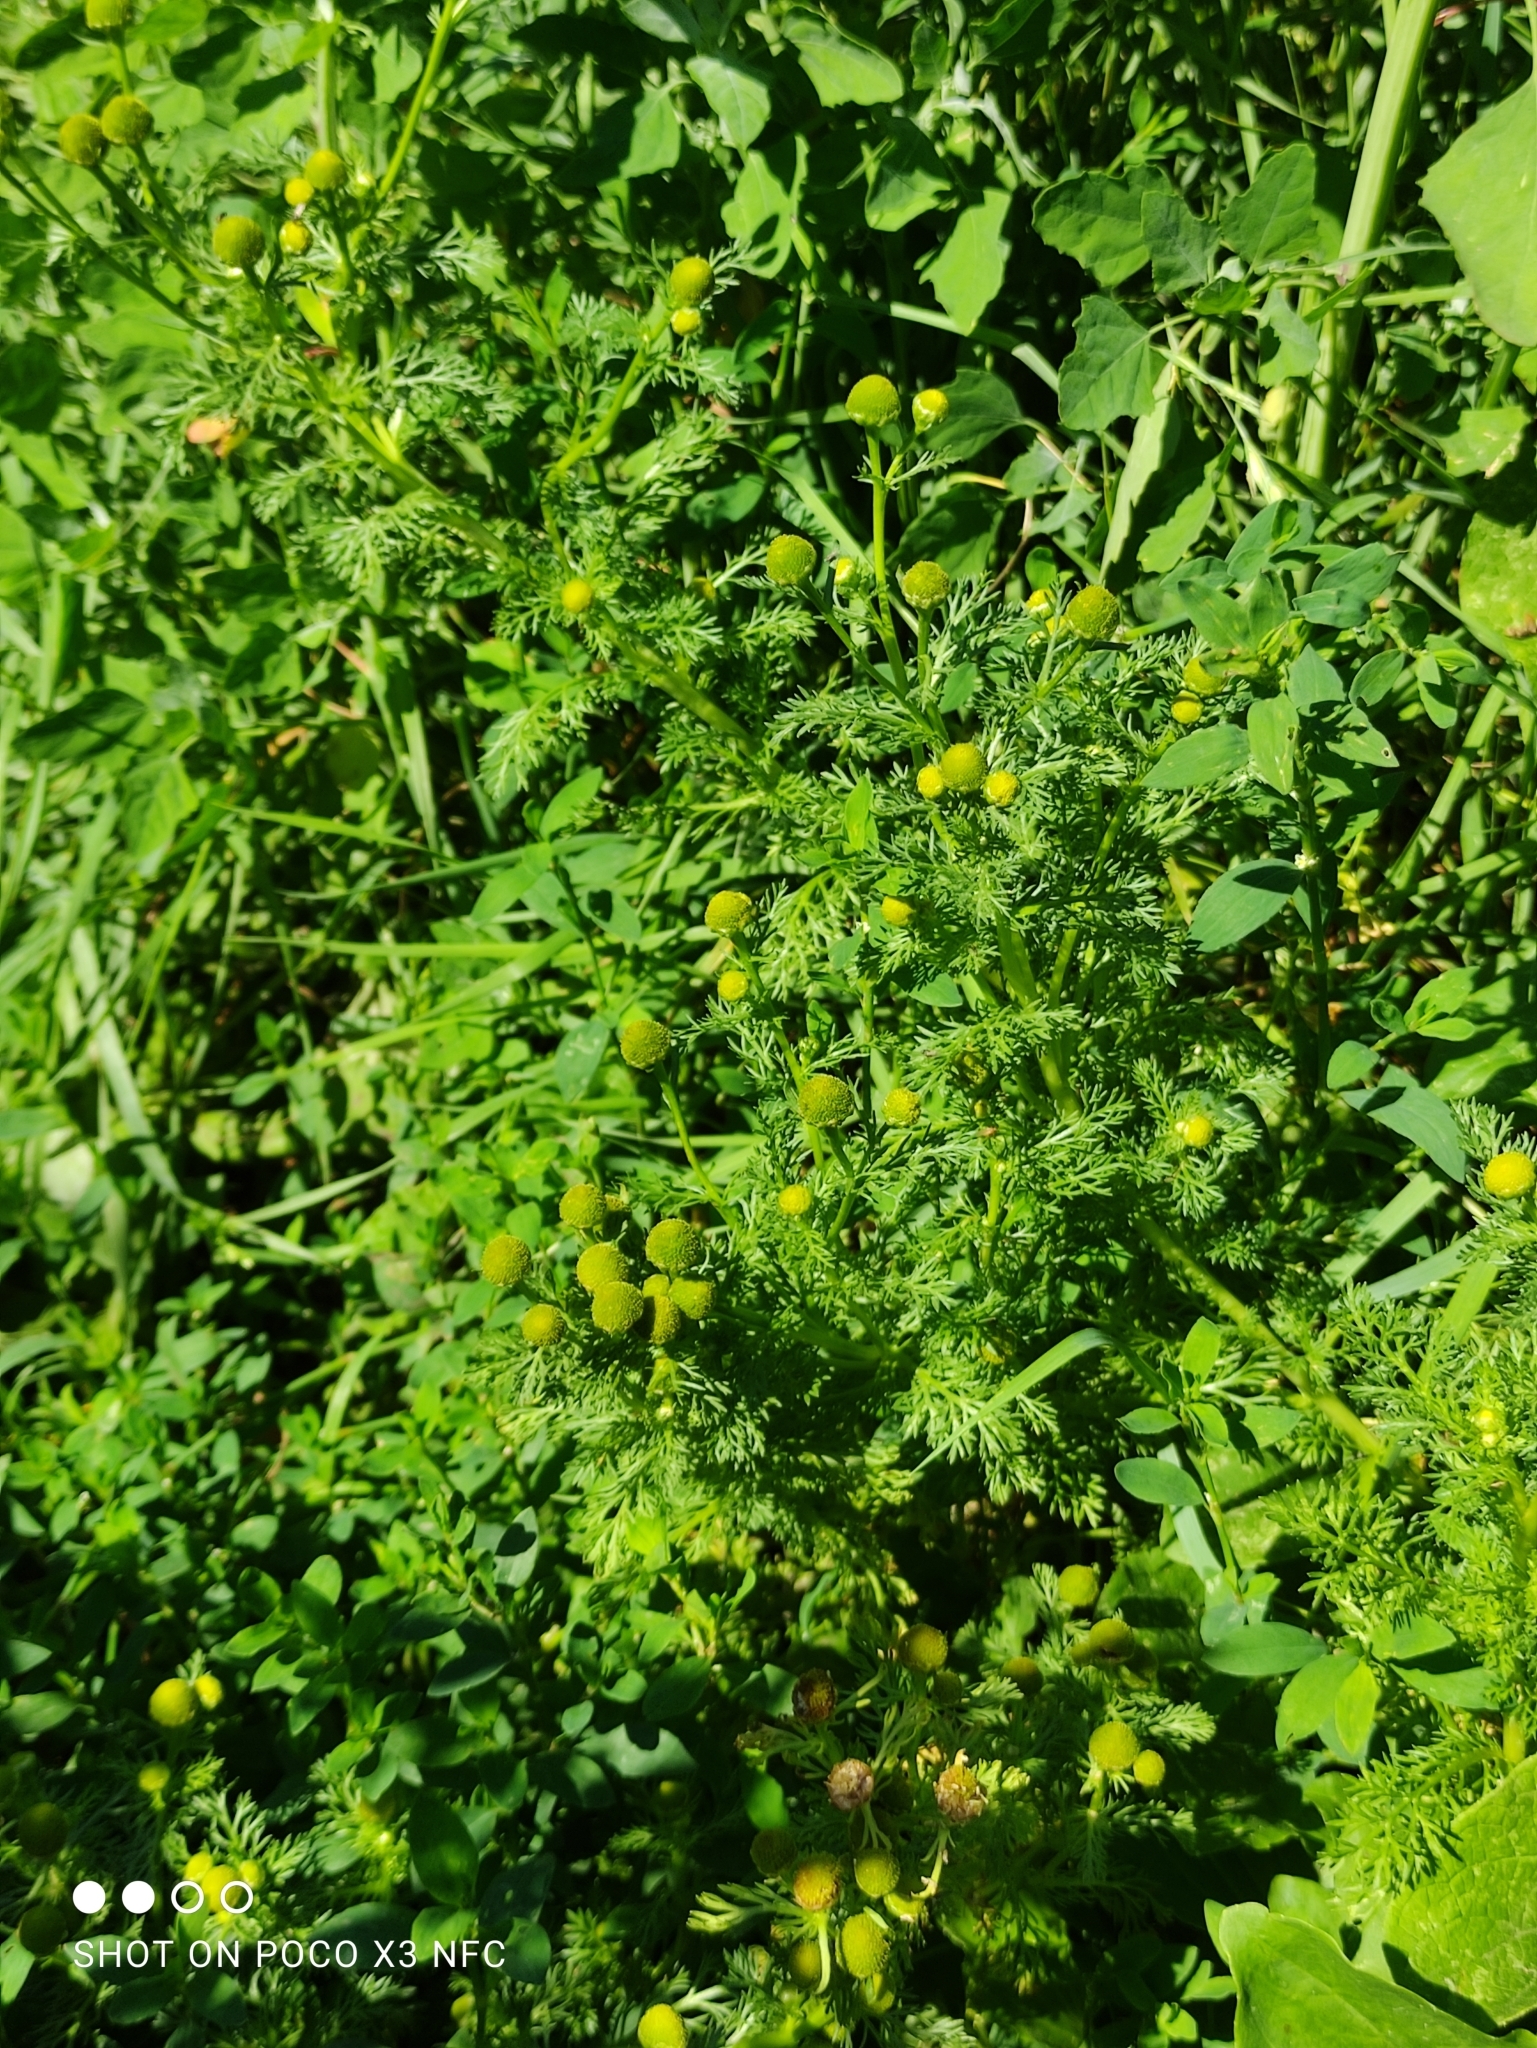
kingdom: Plantae
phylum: Tracheophyta
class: Magnoliopsida
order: Asterales
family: Asteraceae
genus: Matricaria
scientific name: Matricaria discoidea
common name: Disc mayweed
